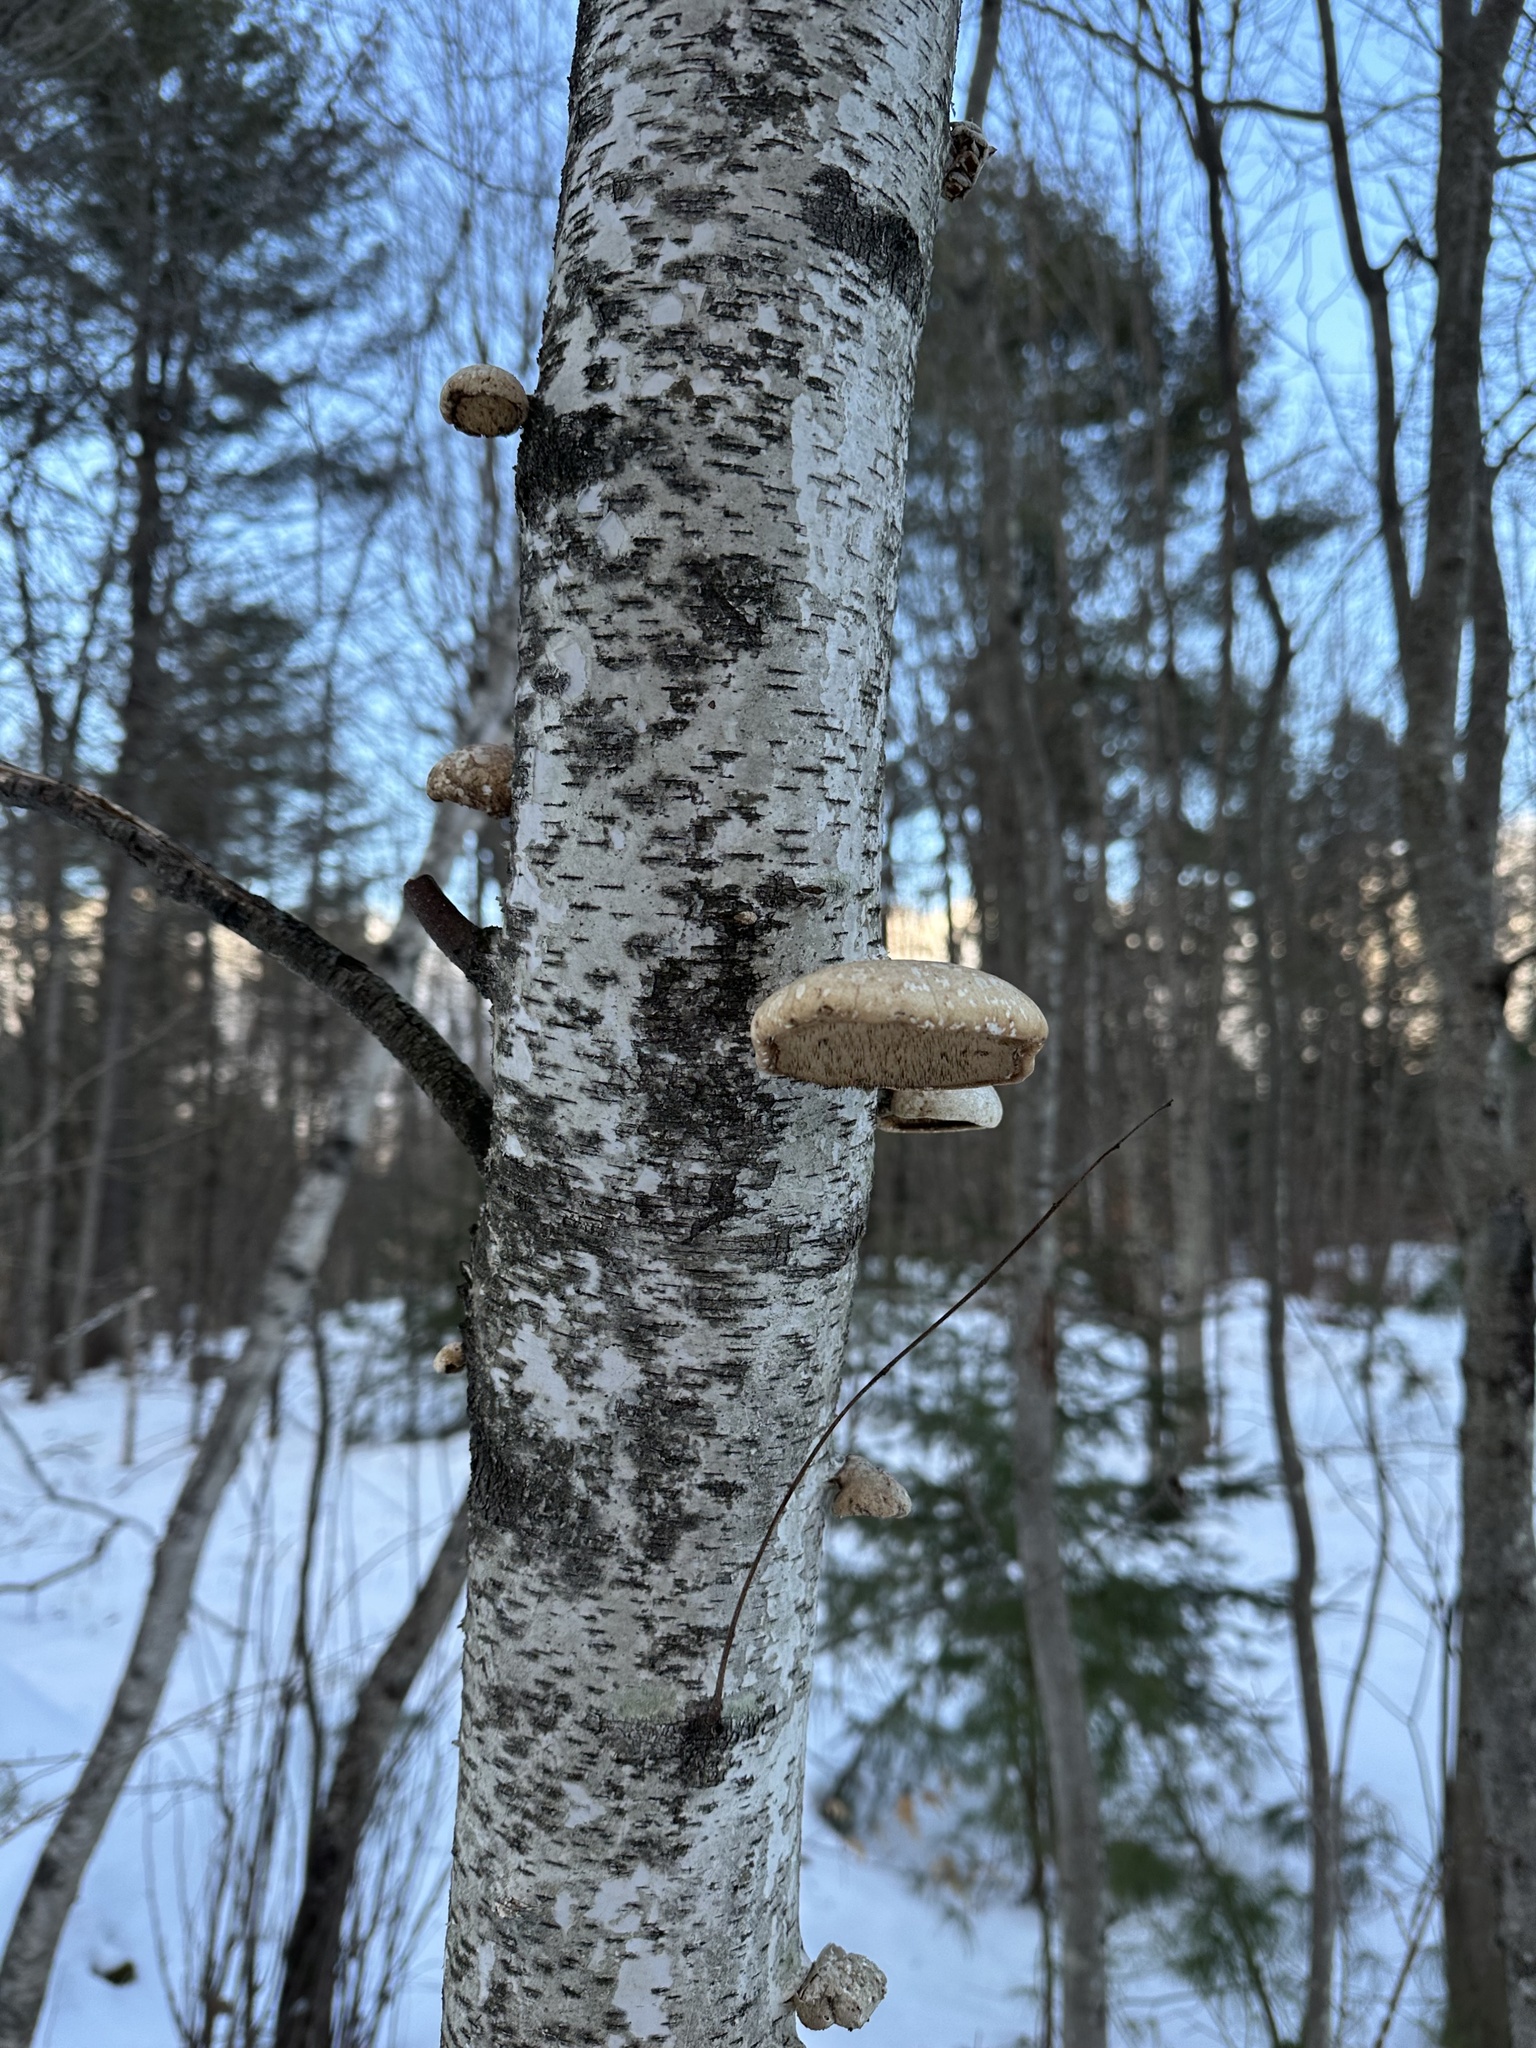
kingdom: Fungi
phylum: Basidiomycota
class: Agaricomycetes
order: Polyporales
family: Fomitopsidaceae
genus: Fomitopsis
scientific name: Fomitopsis betulina
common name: Birch polypore
